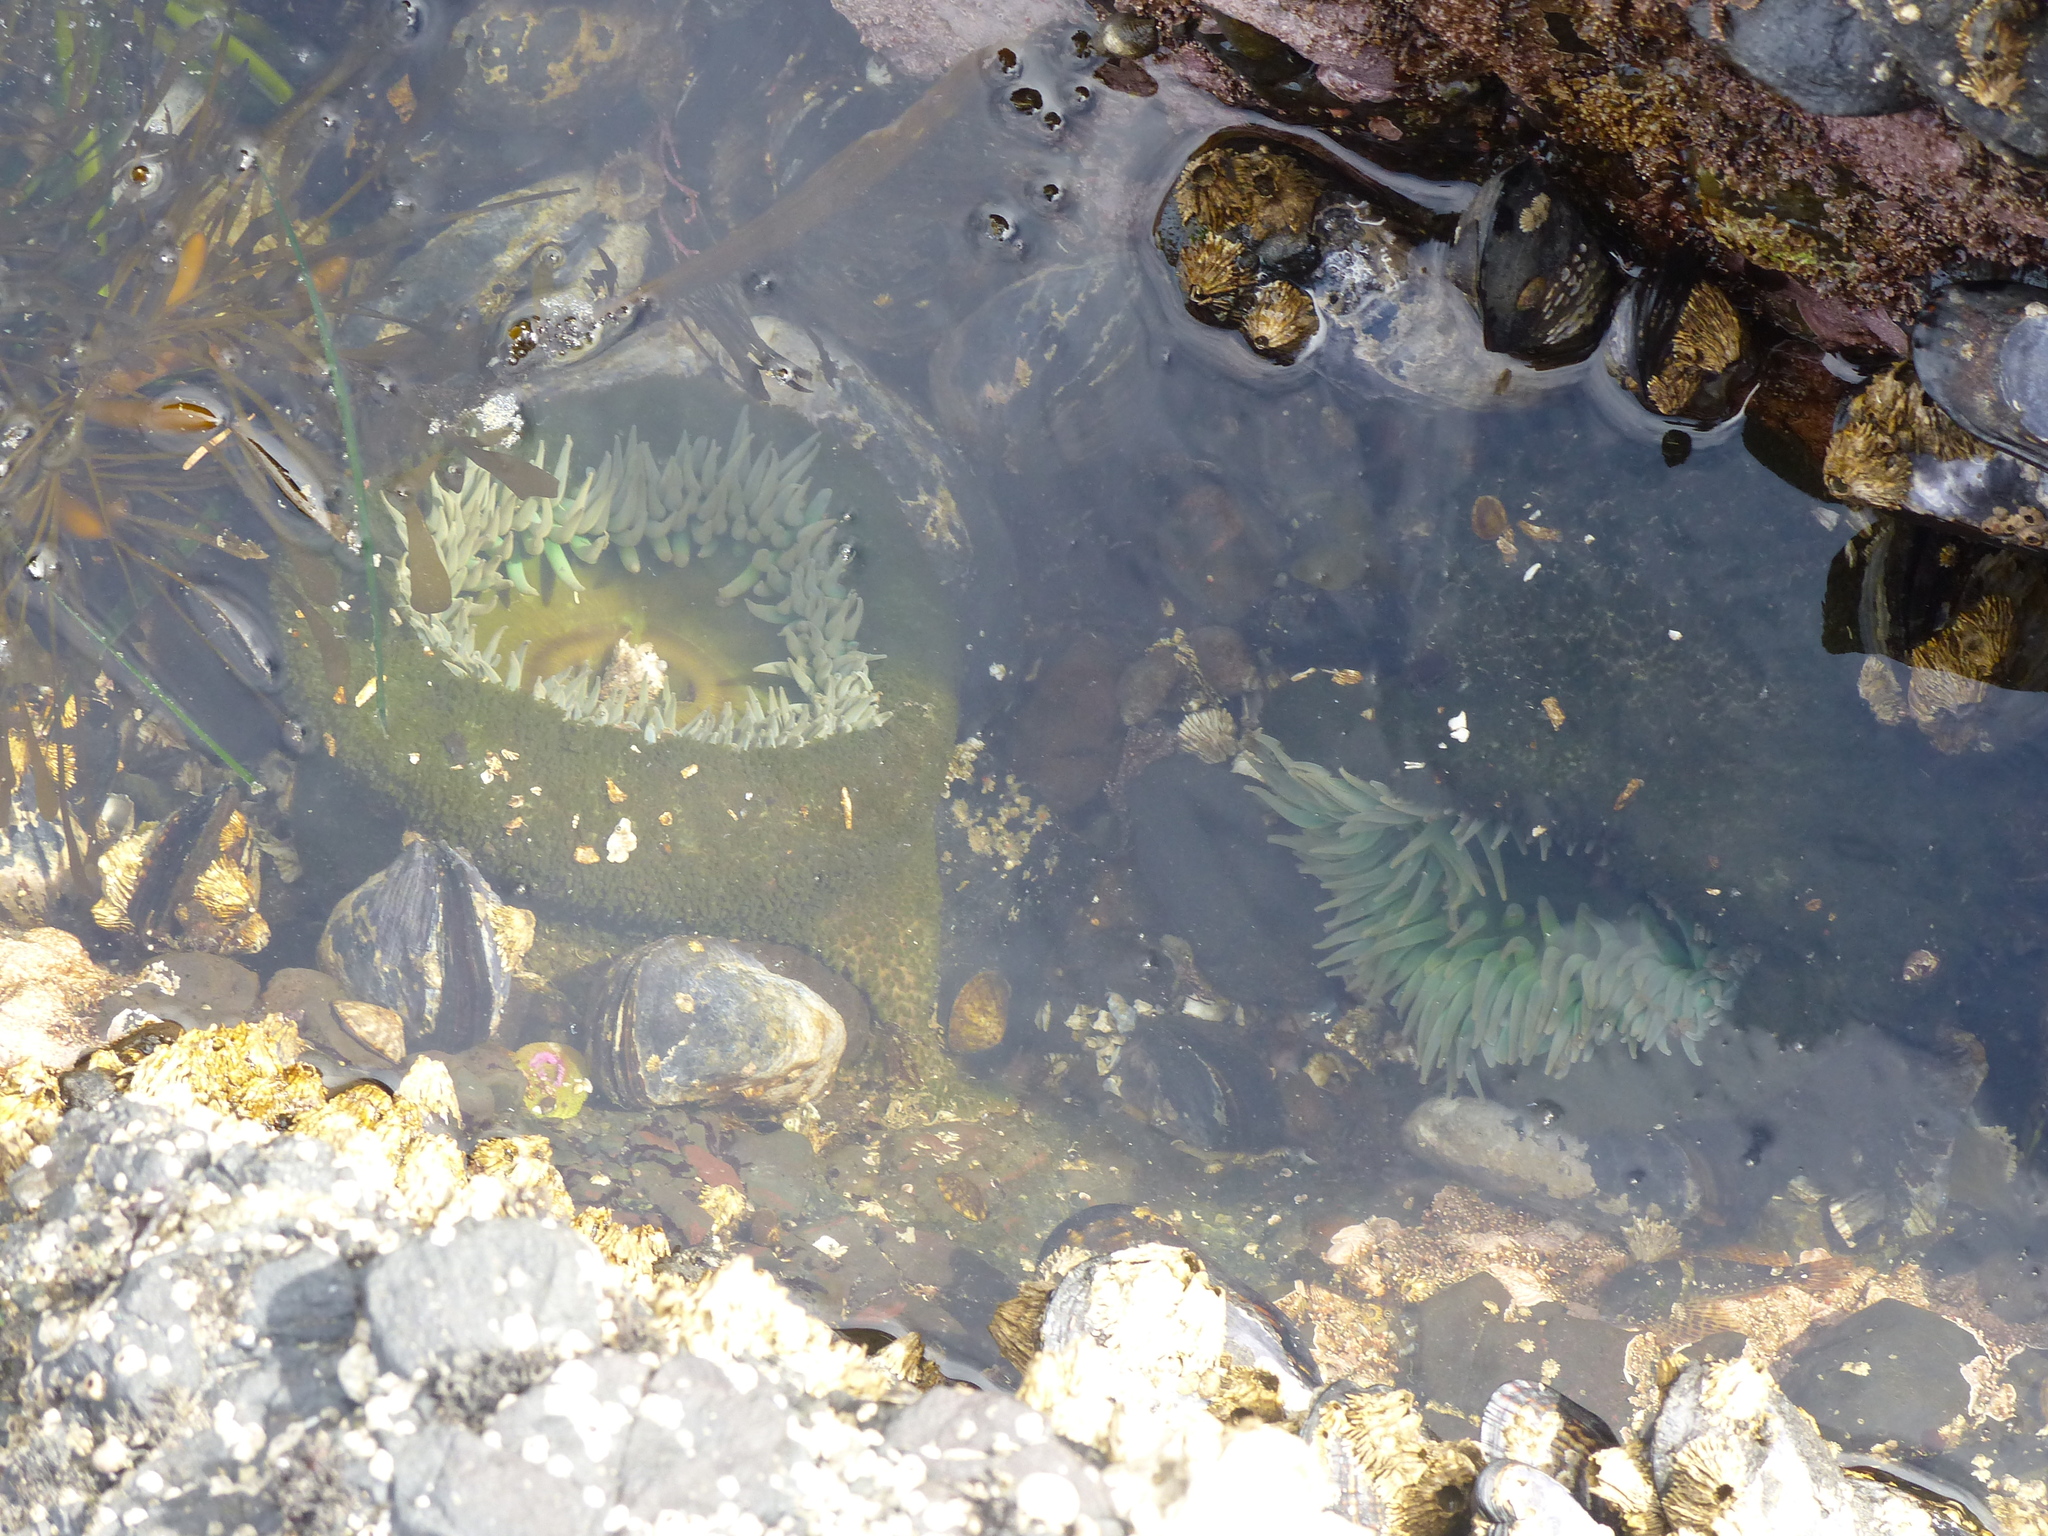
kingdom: Animalia
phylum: Cnidaria
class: Anthozoa
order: Actiniaria
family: Actiniidae
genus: Anthopleura
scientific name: Anthopleura xanthogrammica
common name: Giant green anemone
